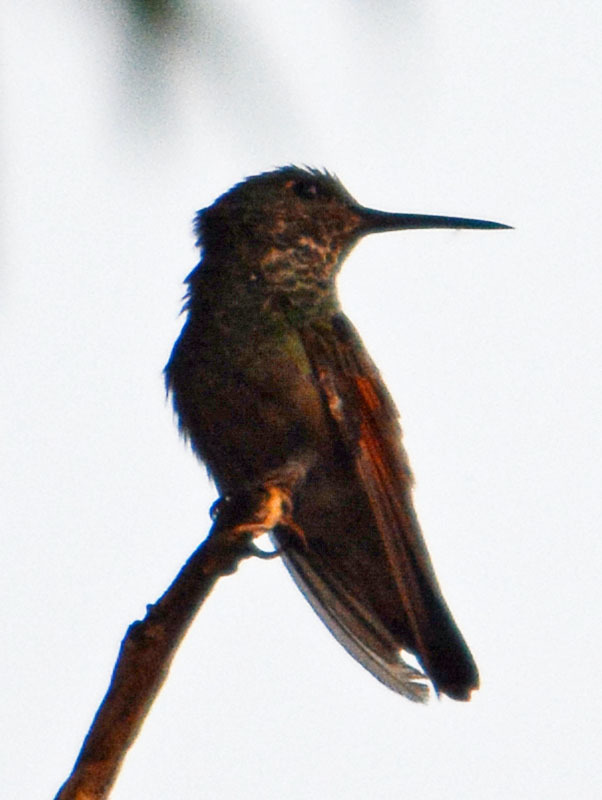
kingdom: Animalia
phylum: Chordata
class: Aves
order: Apodiformes
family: Trochilidae
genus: Saucerottia
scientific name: Saucerottia beryllina
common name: Berylline hummingbird
